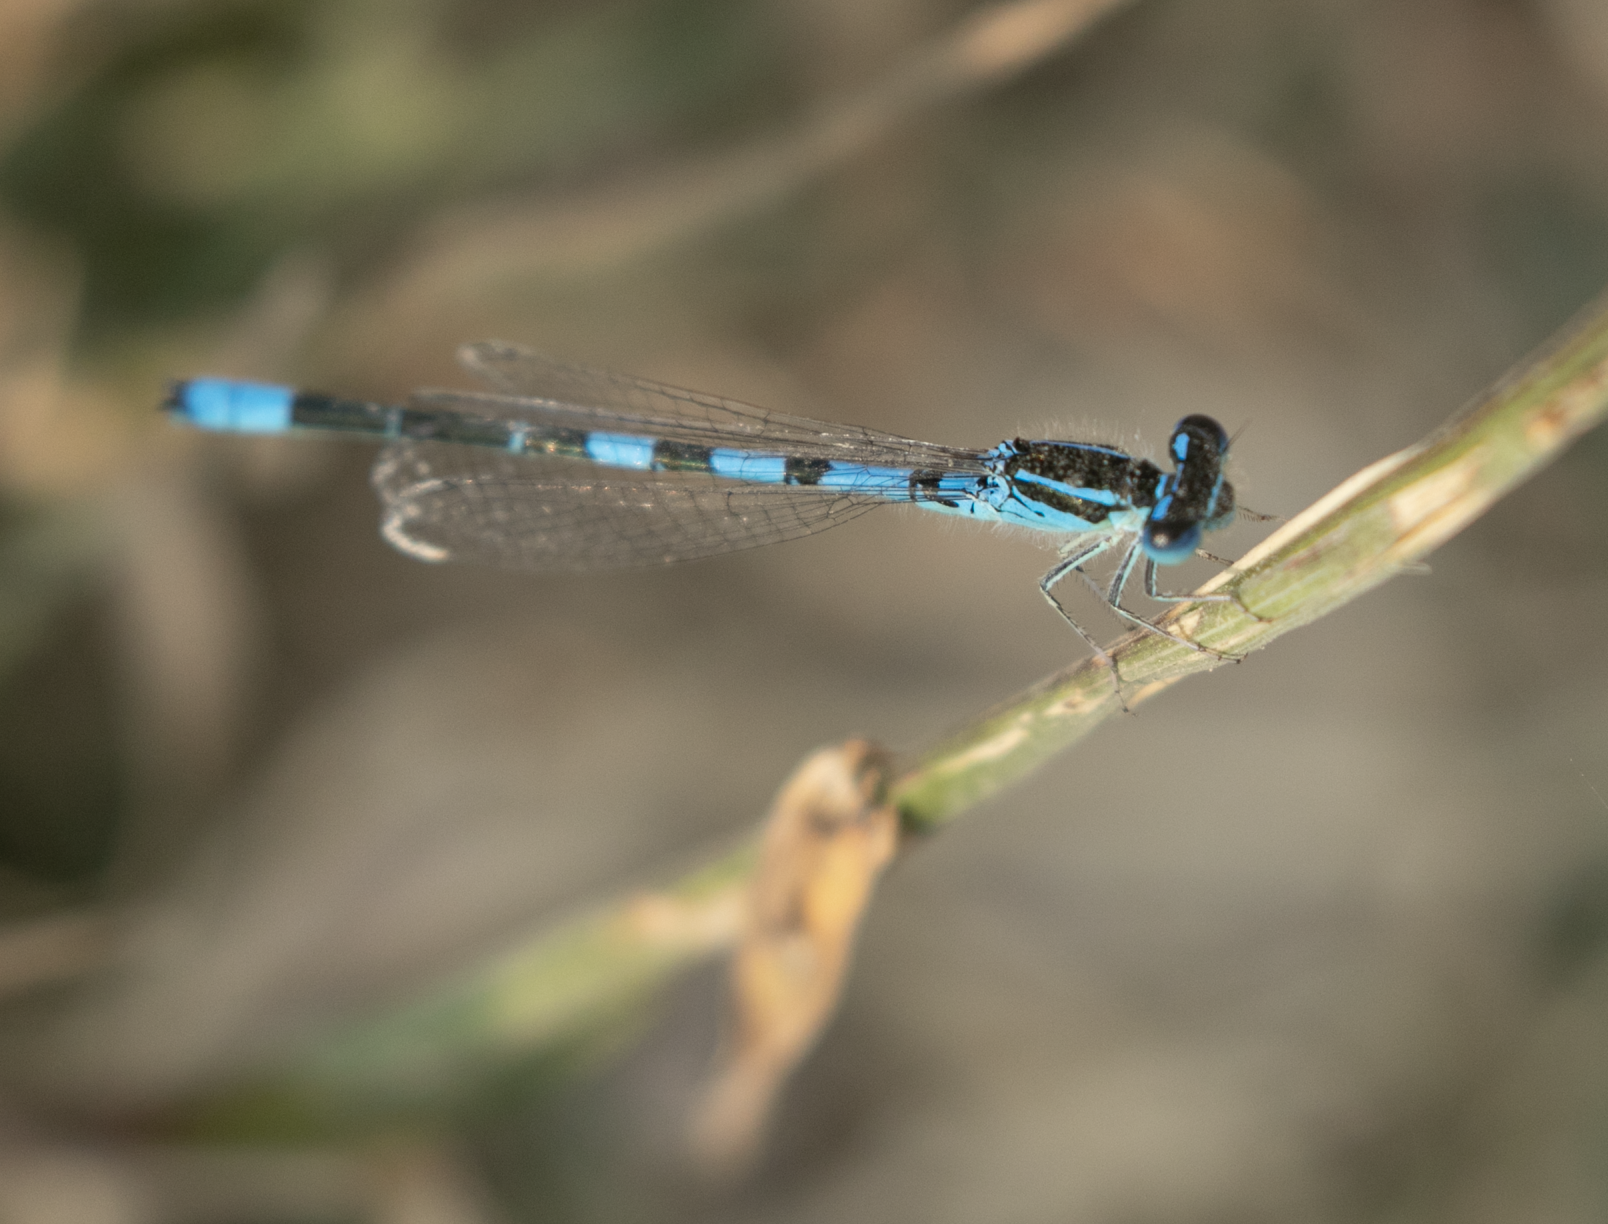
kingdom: Animalia
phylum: Arthropoda
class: Insecta
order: Odonata
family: Coenagrionidae
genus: Coenagrion
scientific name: Coenagrion scitulum
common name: Dainty bluet
